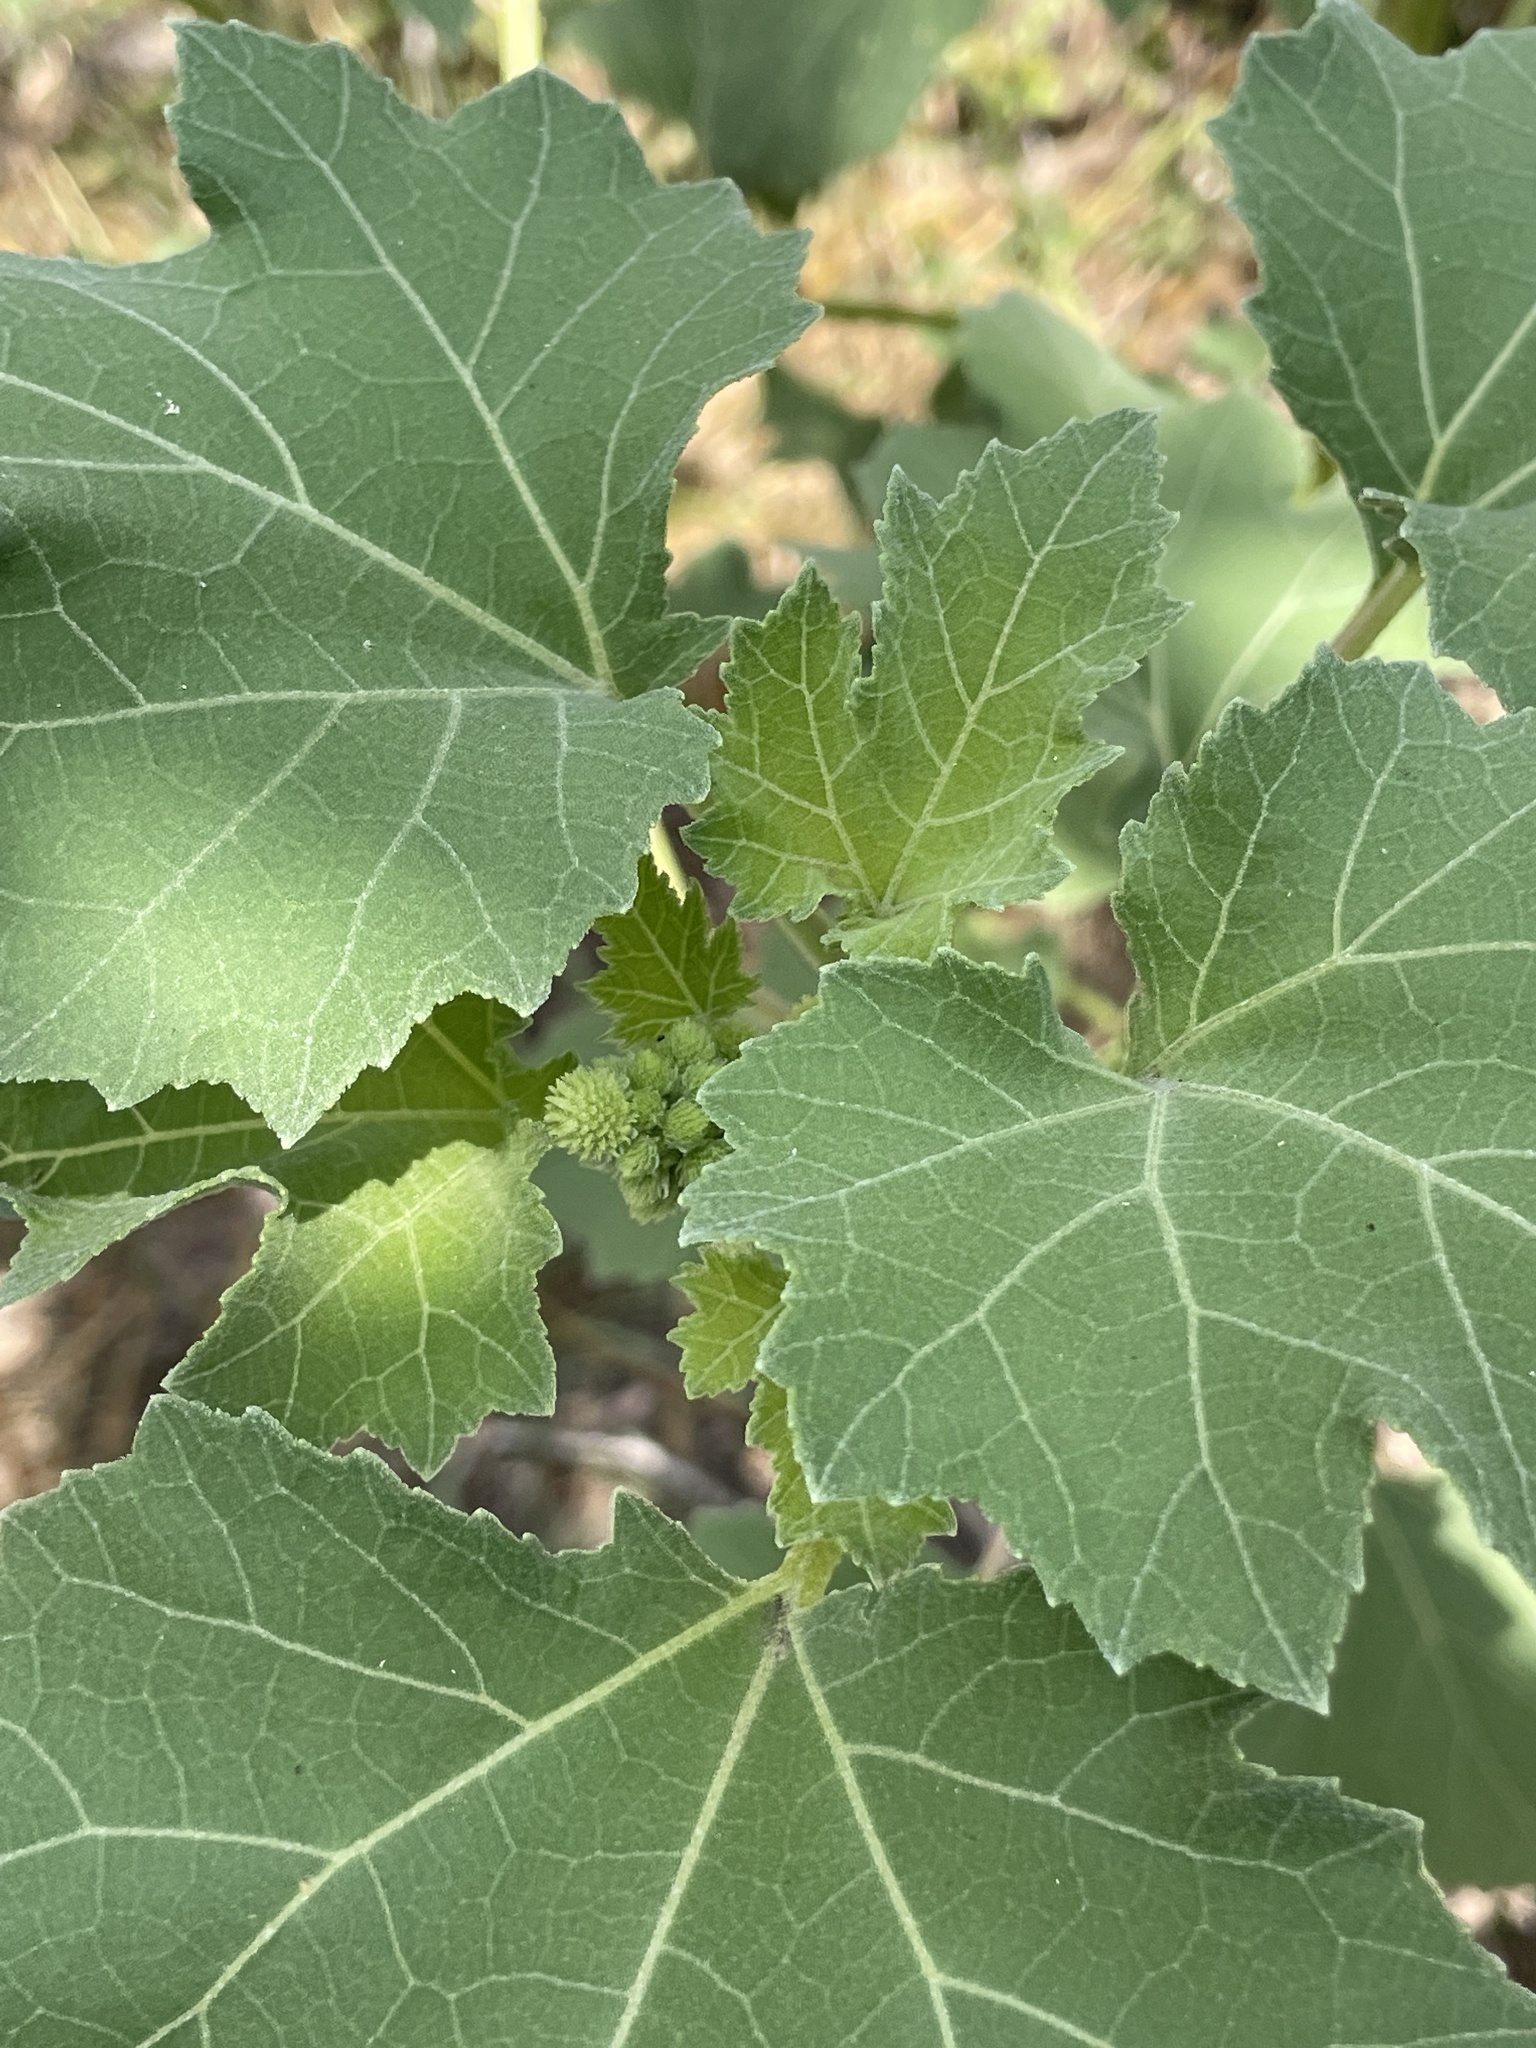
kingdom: Plantae
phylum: Tracheophyta
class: Magnoliopsida
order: Asterales
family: Asteraceae
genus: Xanthium
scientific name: Xanthium strumarium
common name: Rough cocklebur
